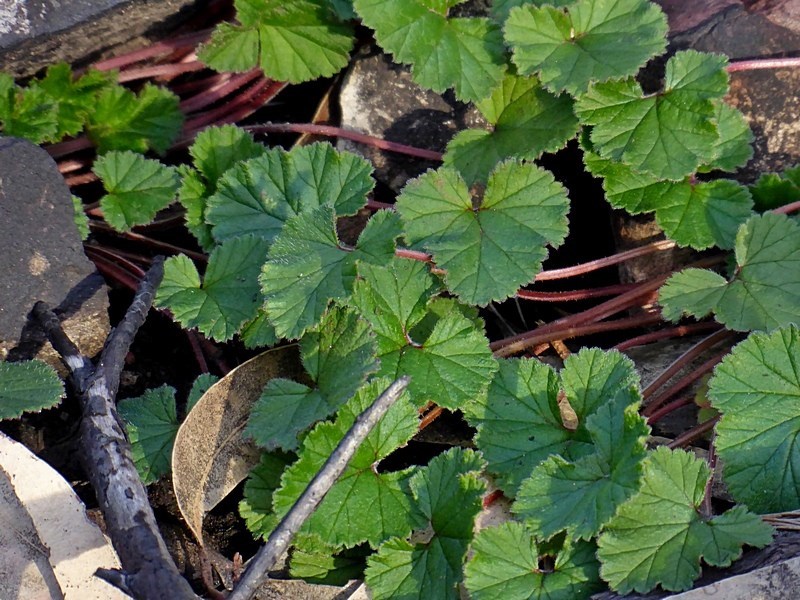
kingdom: Plantae
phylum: Tracheophyta
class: Magnoliopsida
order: Geraniales
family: Geraniaceae
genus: Pelargonium
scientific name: Pelargonium inodorum
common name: Kopata geranium
